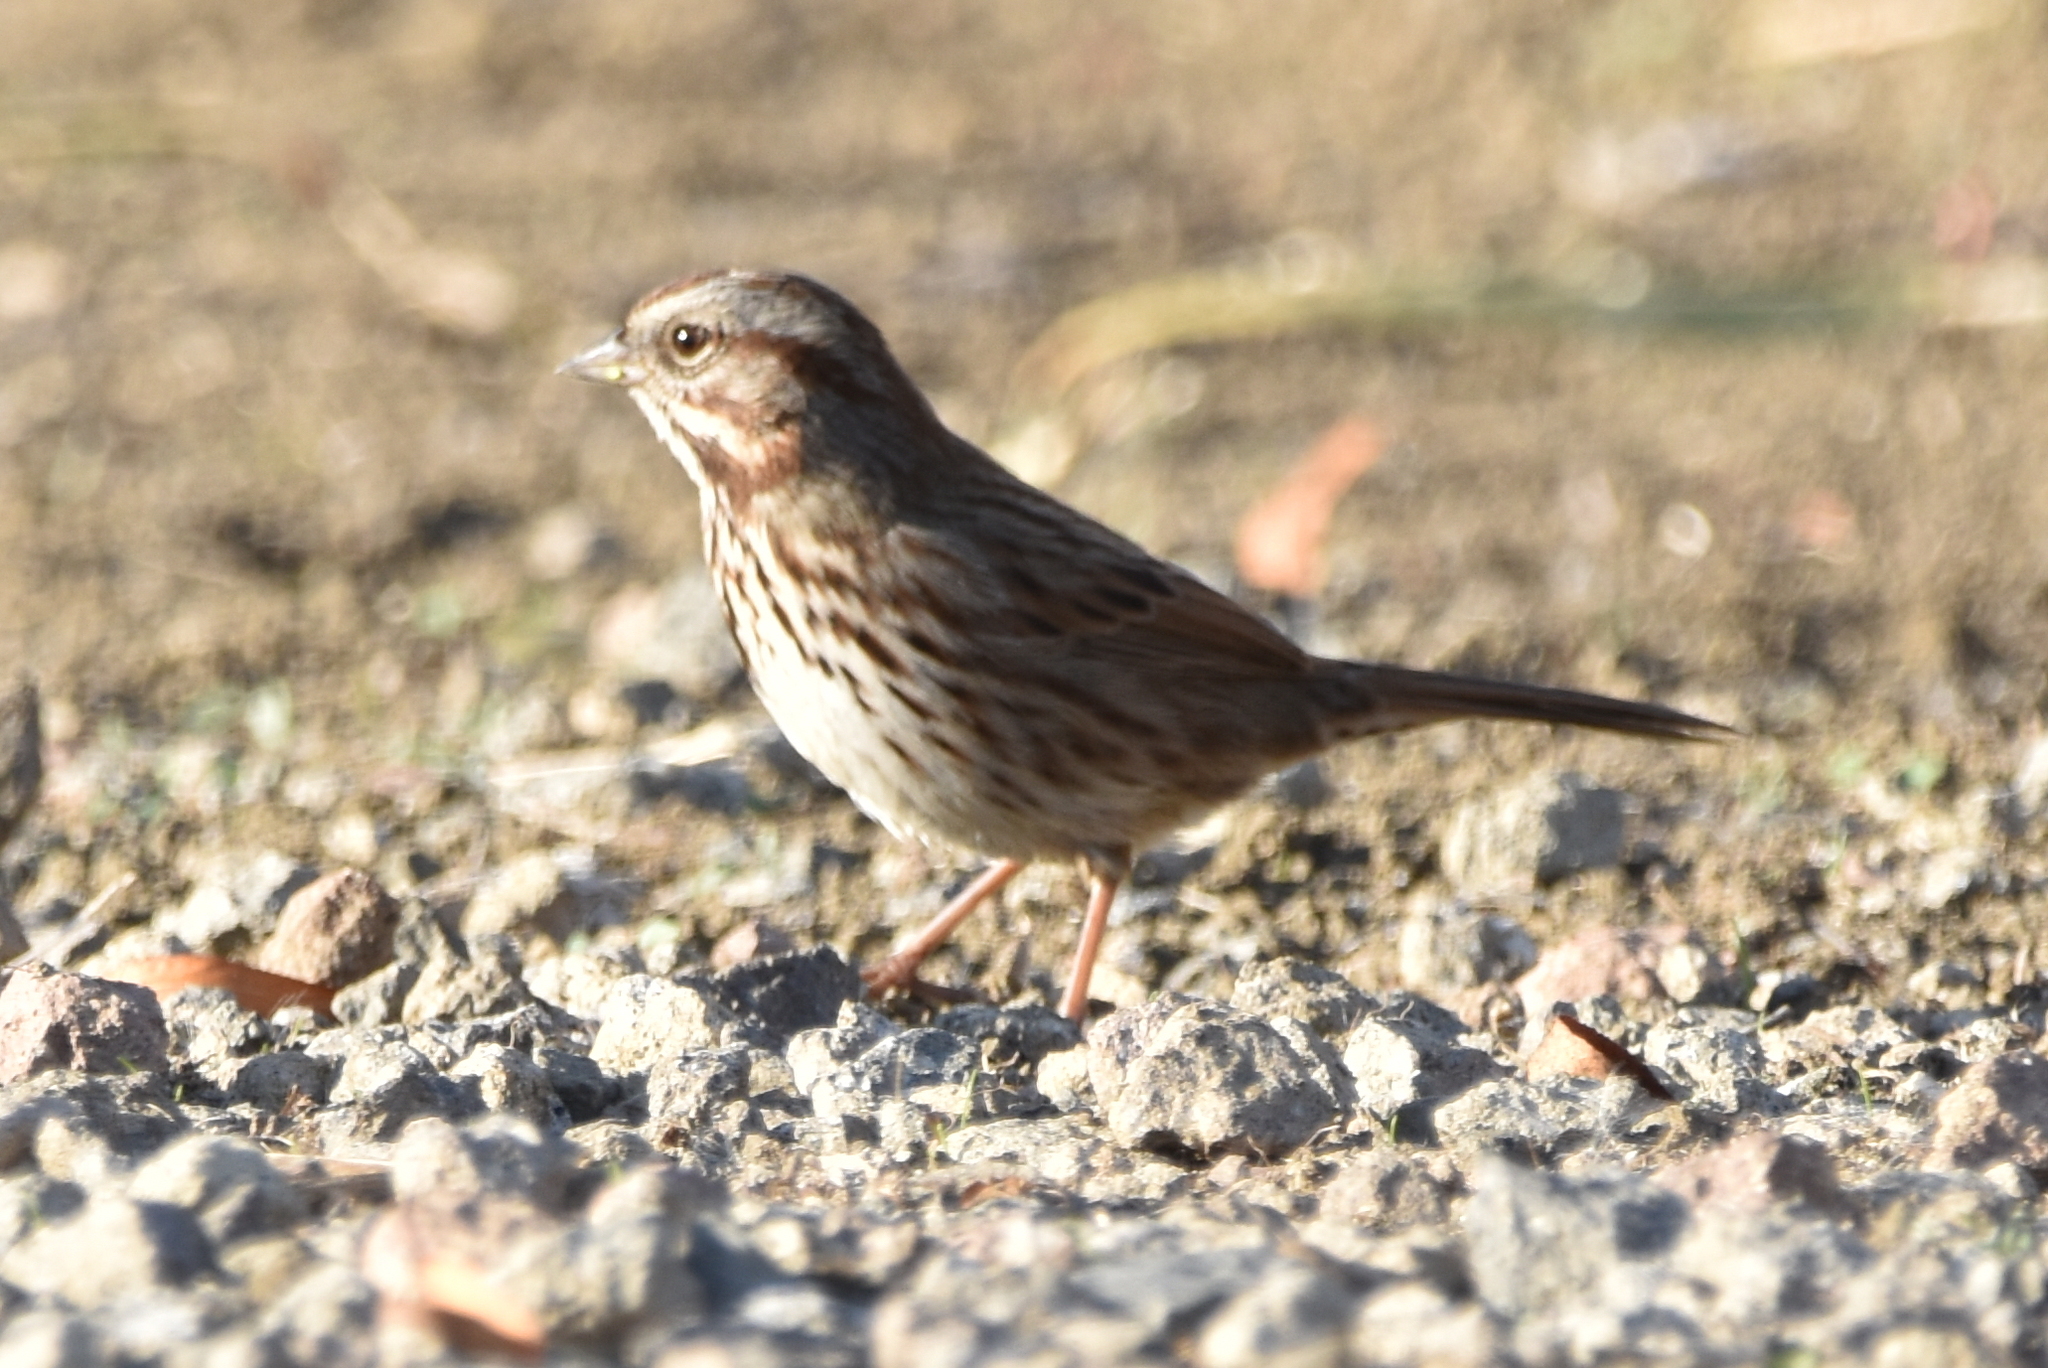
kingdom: Animalia
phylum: Chordata
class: Aves
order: Passeriformes
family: Passerellidae
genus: Melospiza
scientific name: Melospiza melodia
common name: Song sparrow
